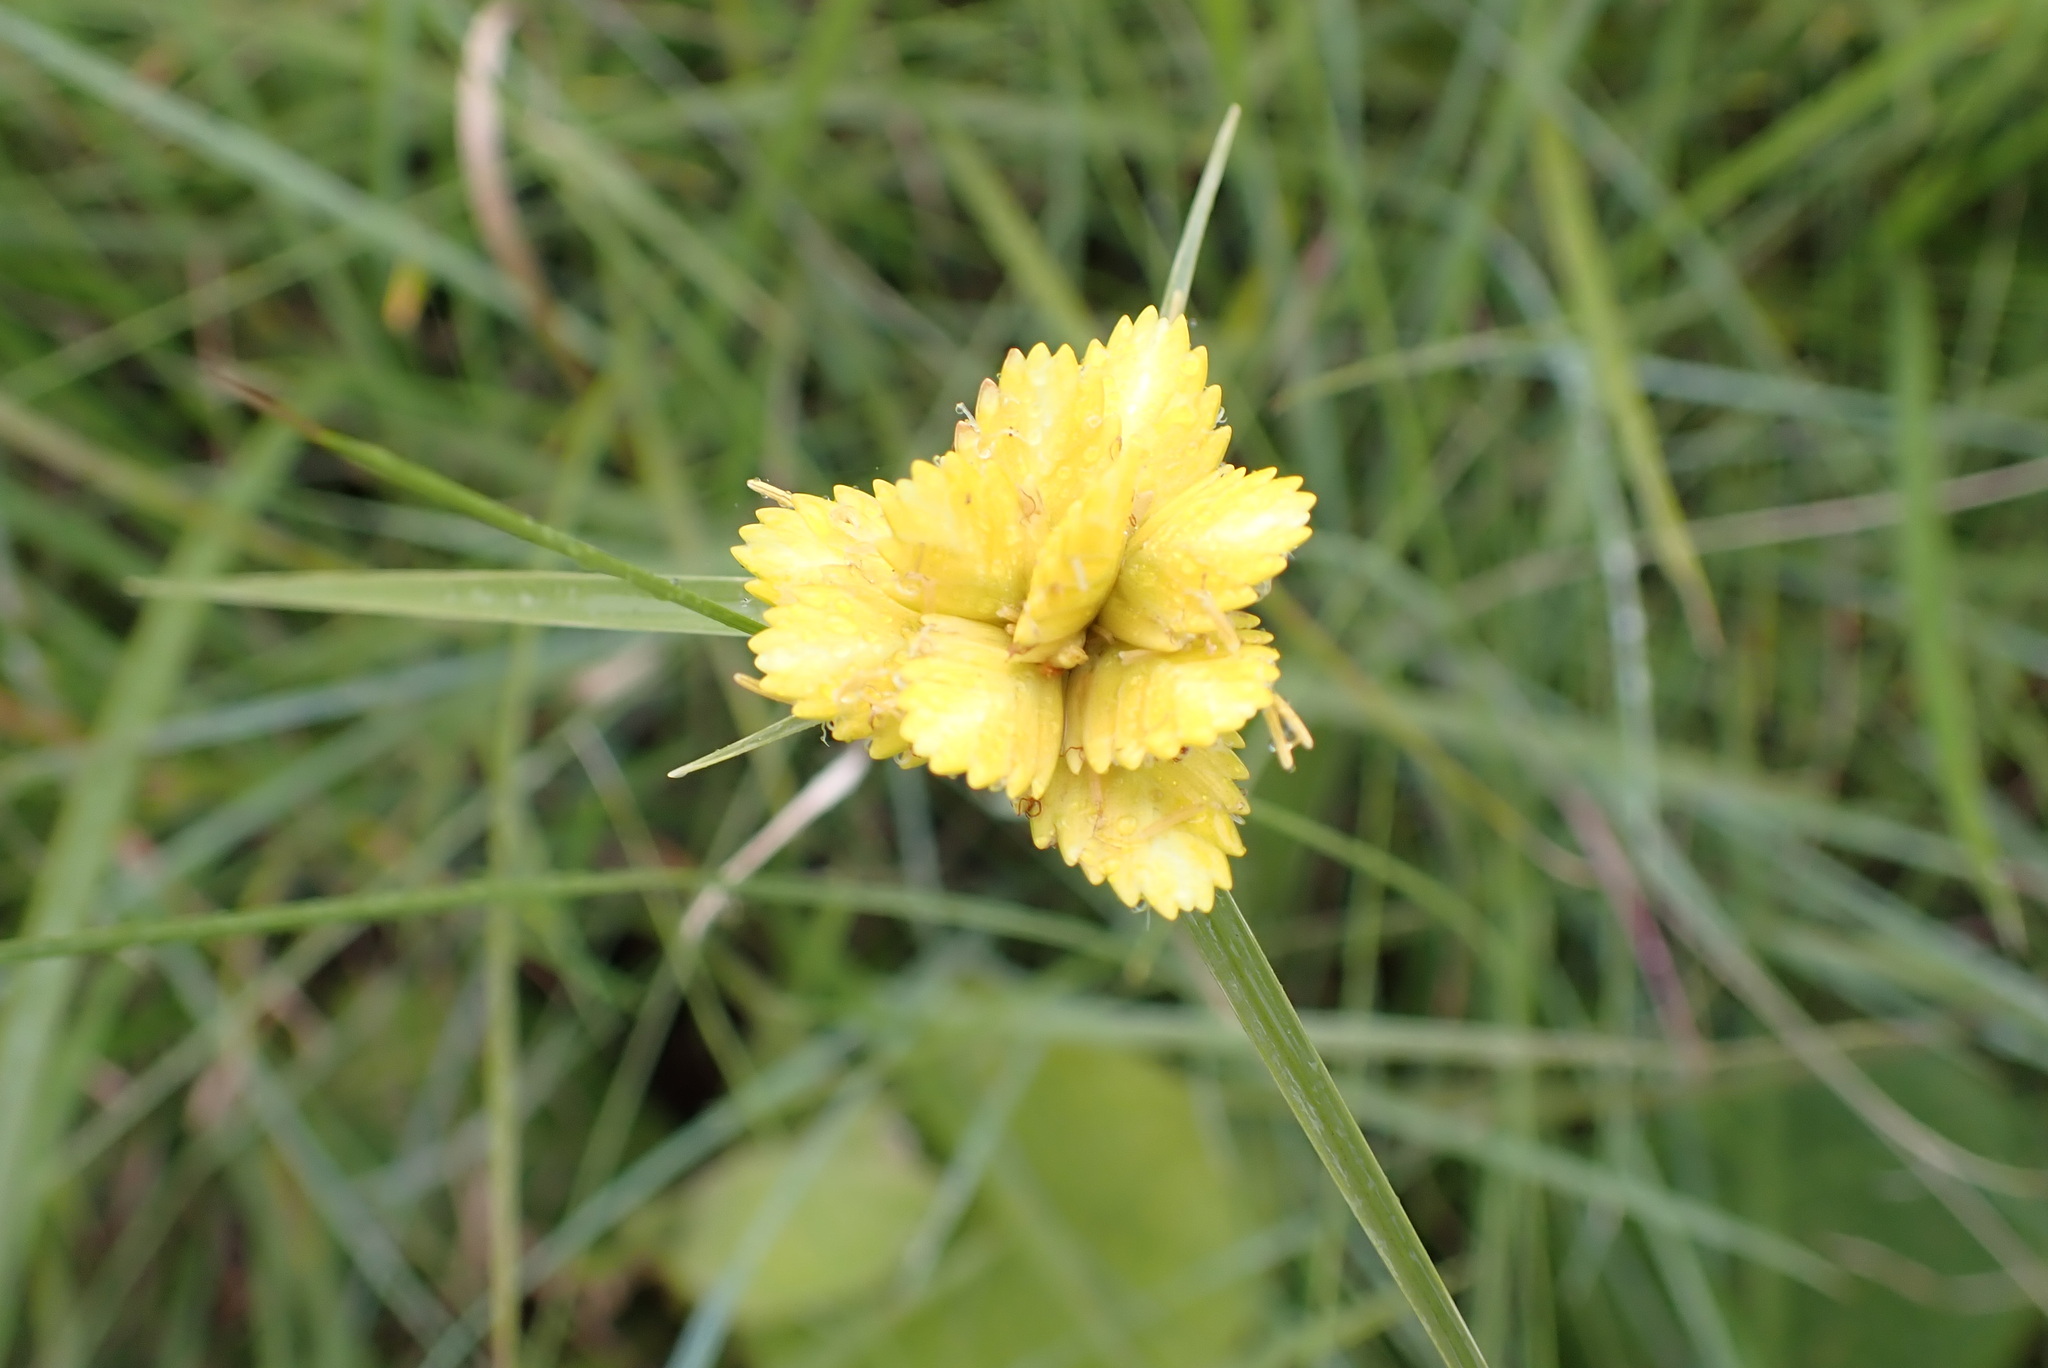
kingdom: Plantae
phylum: Tracheophyta
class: Liliopsida
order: Poales
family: Cyperaceae
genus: Cyperus
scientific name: Cyperus sphaerocephalus
